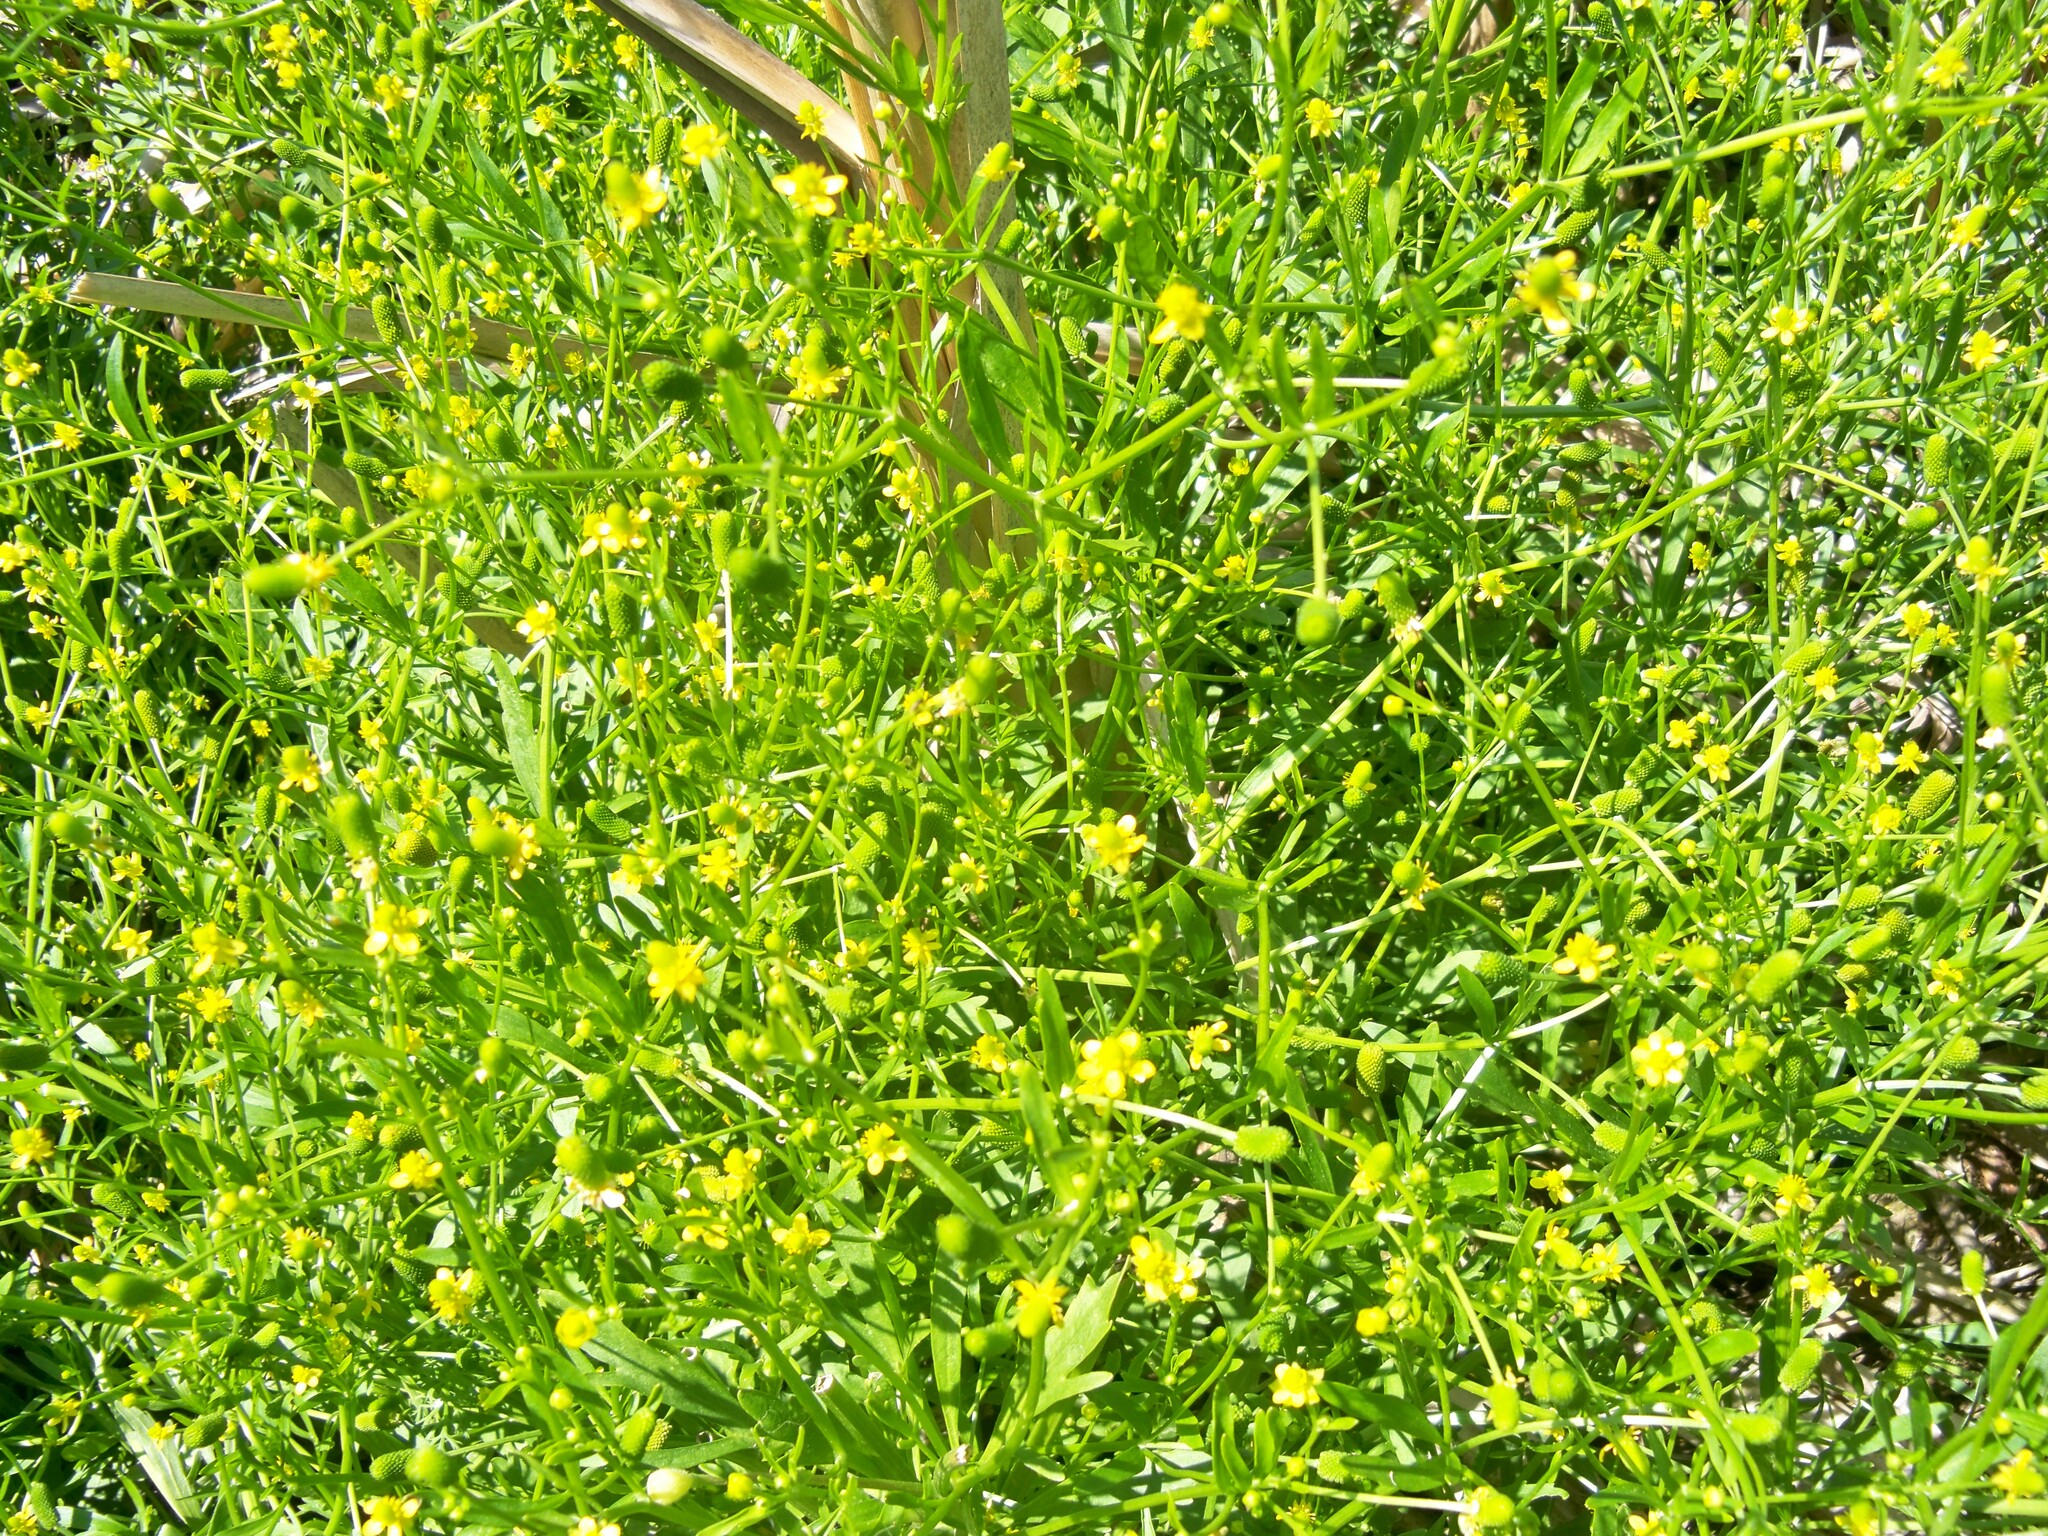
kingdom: Plantae
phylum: Tracheophyta
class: Magnoliopsida
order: Ranunculales
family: Ranunculaceae
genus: Ranunculus
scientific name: Ranunculus sceleratus
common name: Celery-leaved buttercup
